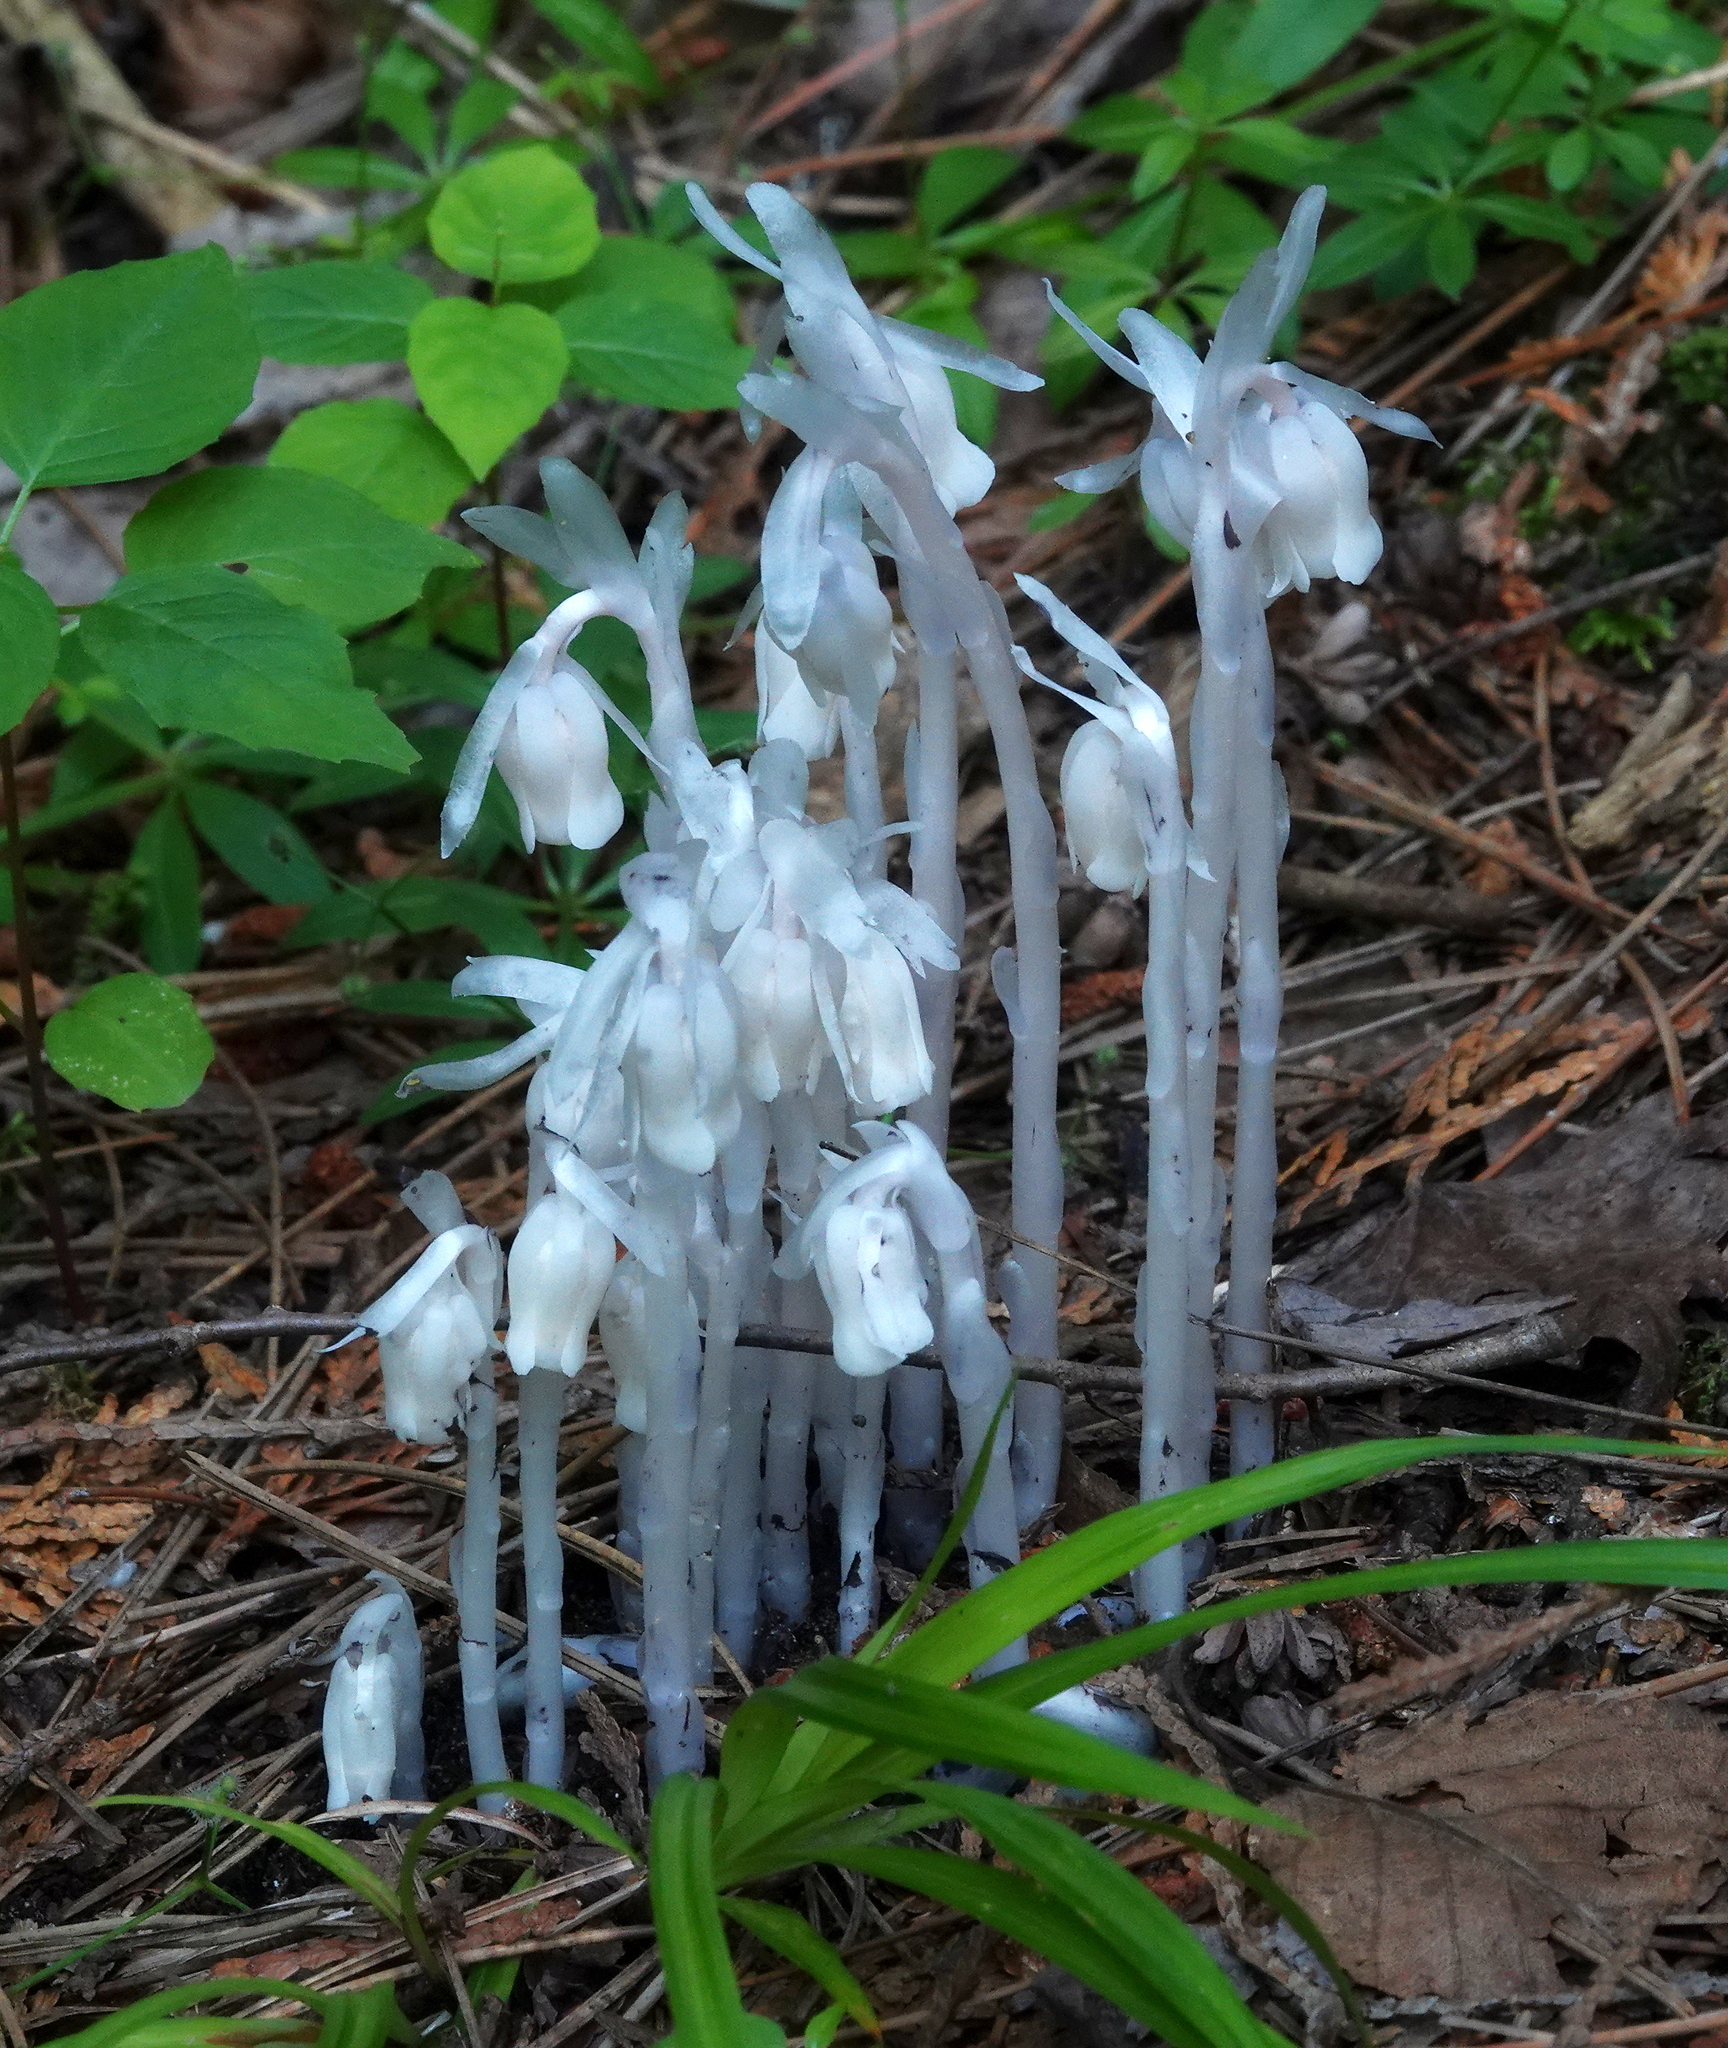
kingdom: Plantae
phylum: Tracheophyta
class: Magnoliopsida
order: Ericales
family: Ericaceae
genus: Monotropa
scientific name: Monotropa uniflora
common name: Convulsion root
